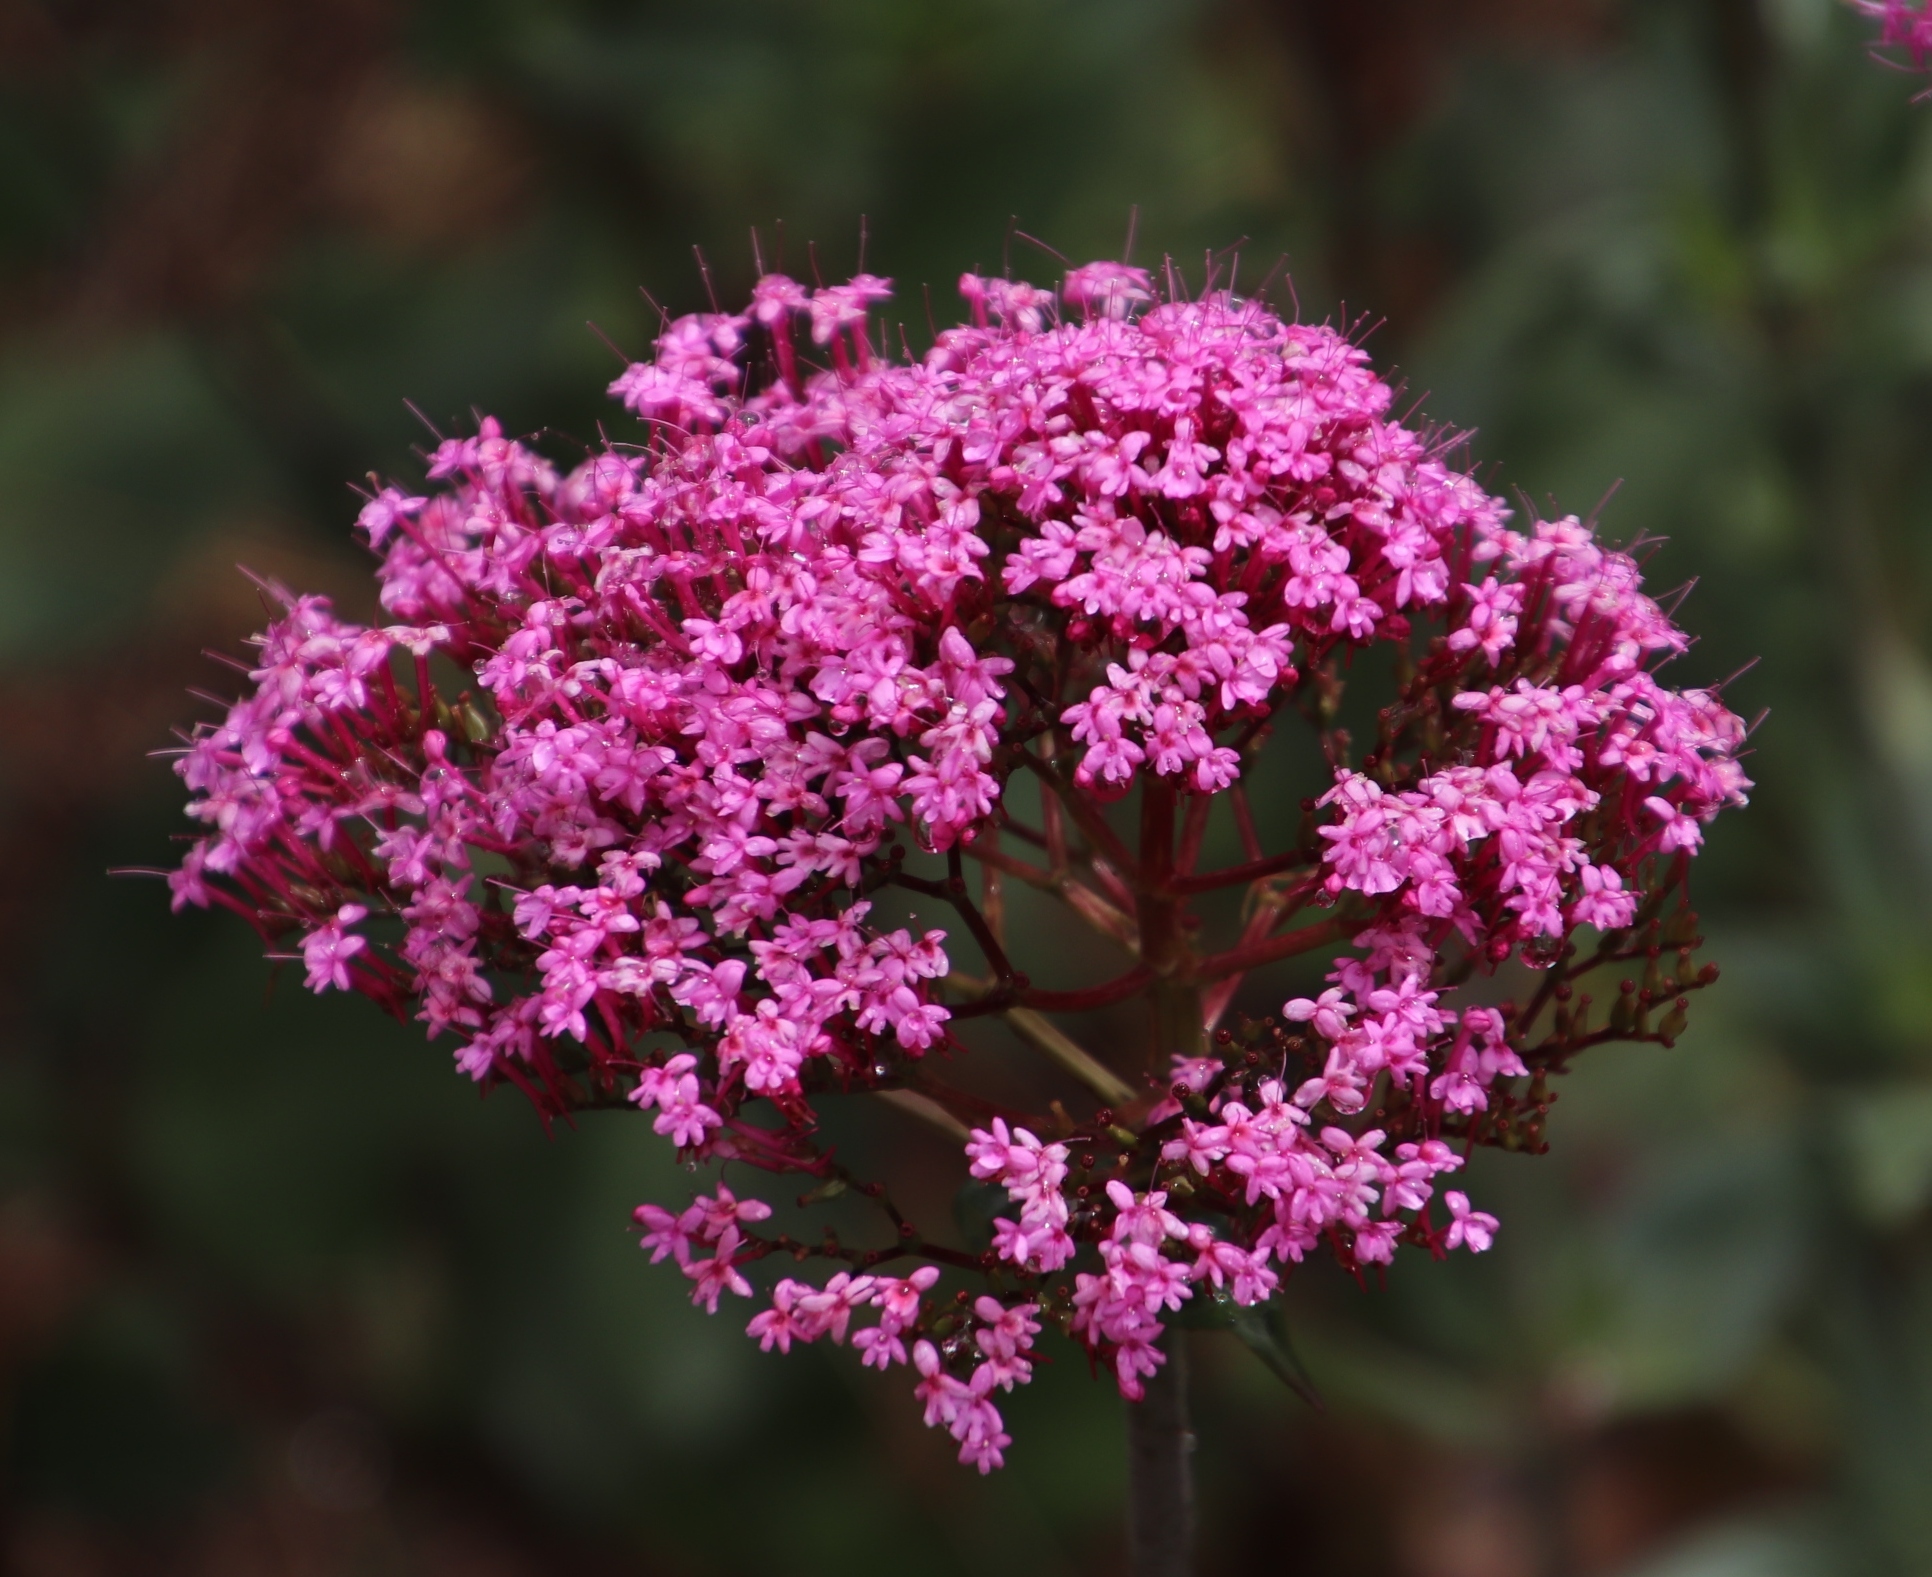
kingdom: Plantae
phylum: Tracheophyta
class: Magnoliopsida
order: Dipsacales
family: Caprifoliaceae
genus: Centranthus
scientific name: Centranthus ruber
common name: Red valerian
